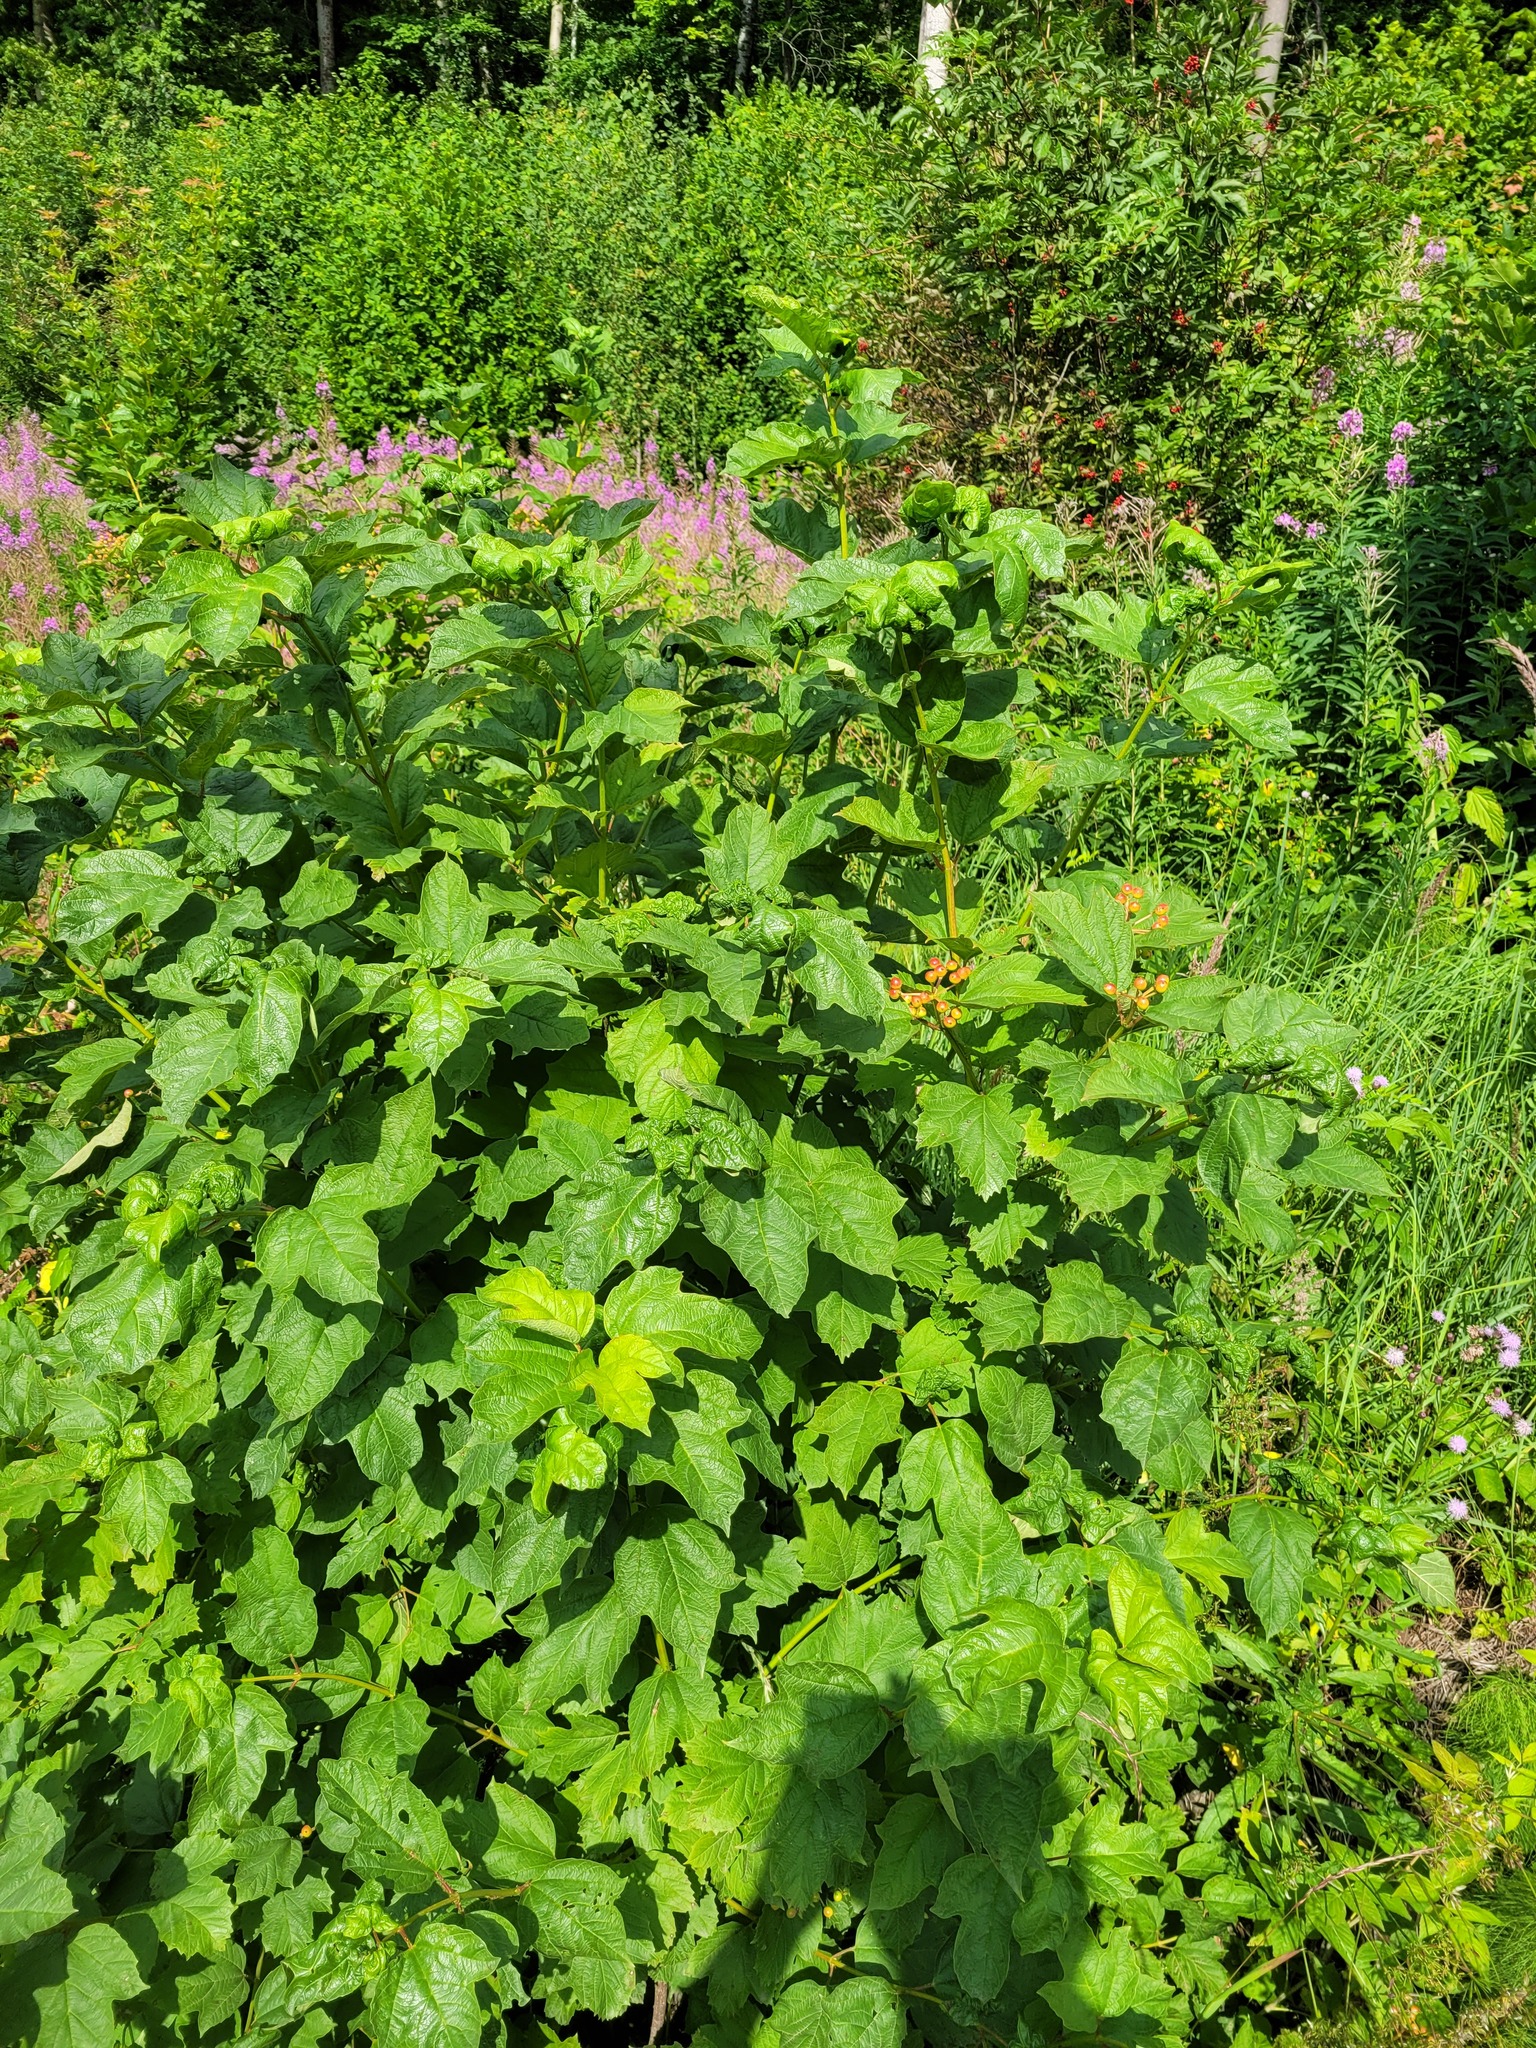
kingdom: Plantae
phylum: Tracheophyta
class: Magnoliopsida
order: Dipsacales
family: Viburnaceae
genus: Viburnum
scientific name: Viburnum opulus
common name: Guelder-rose
